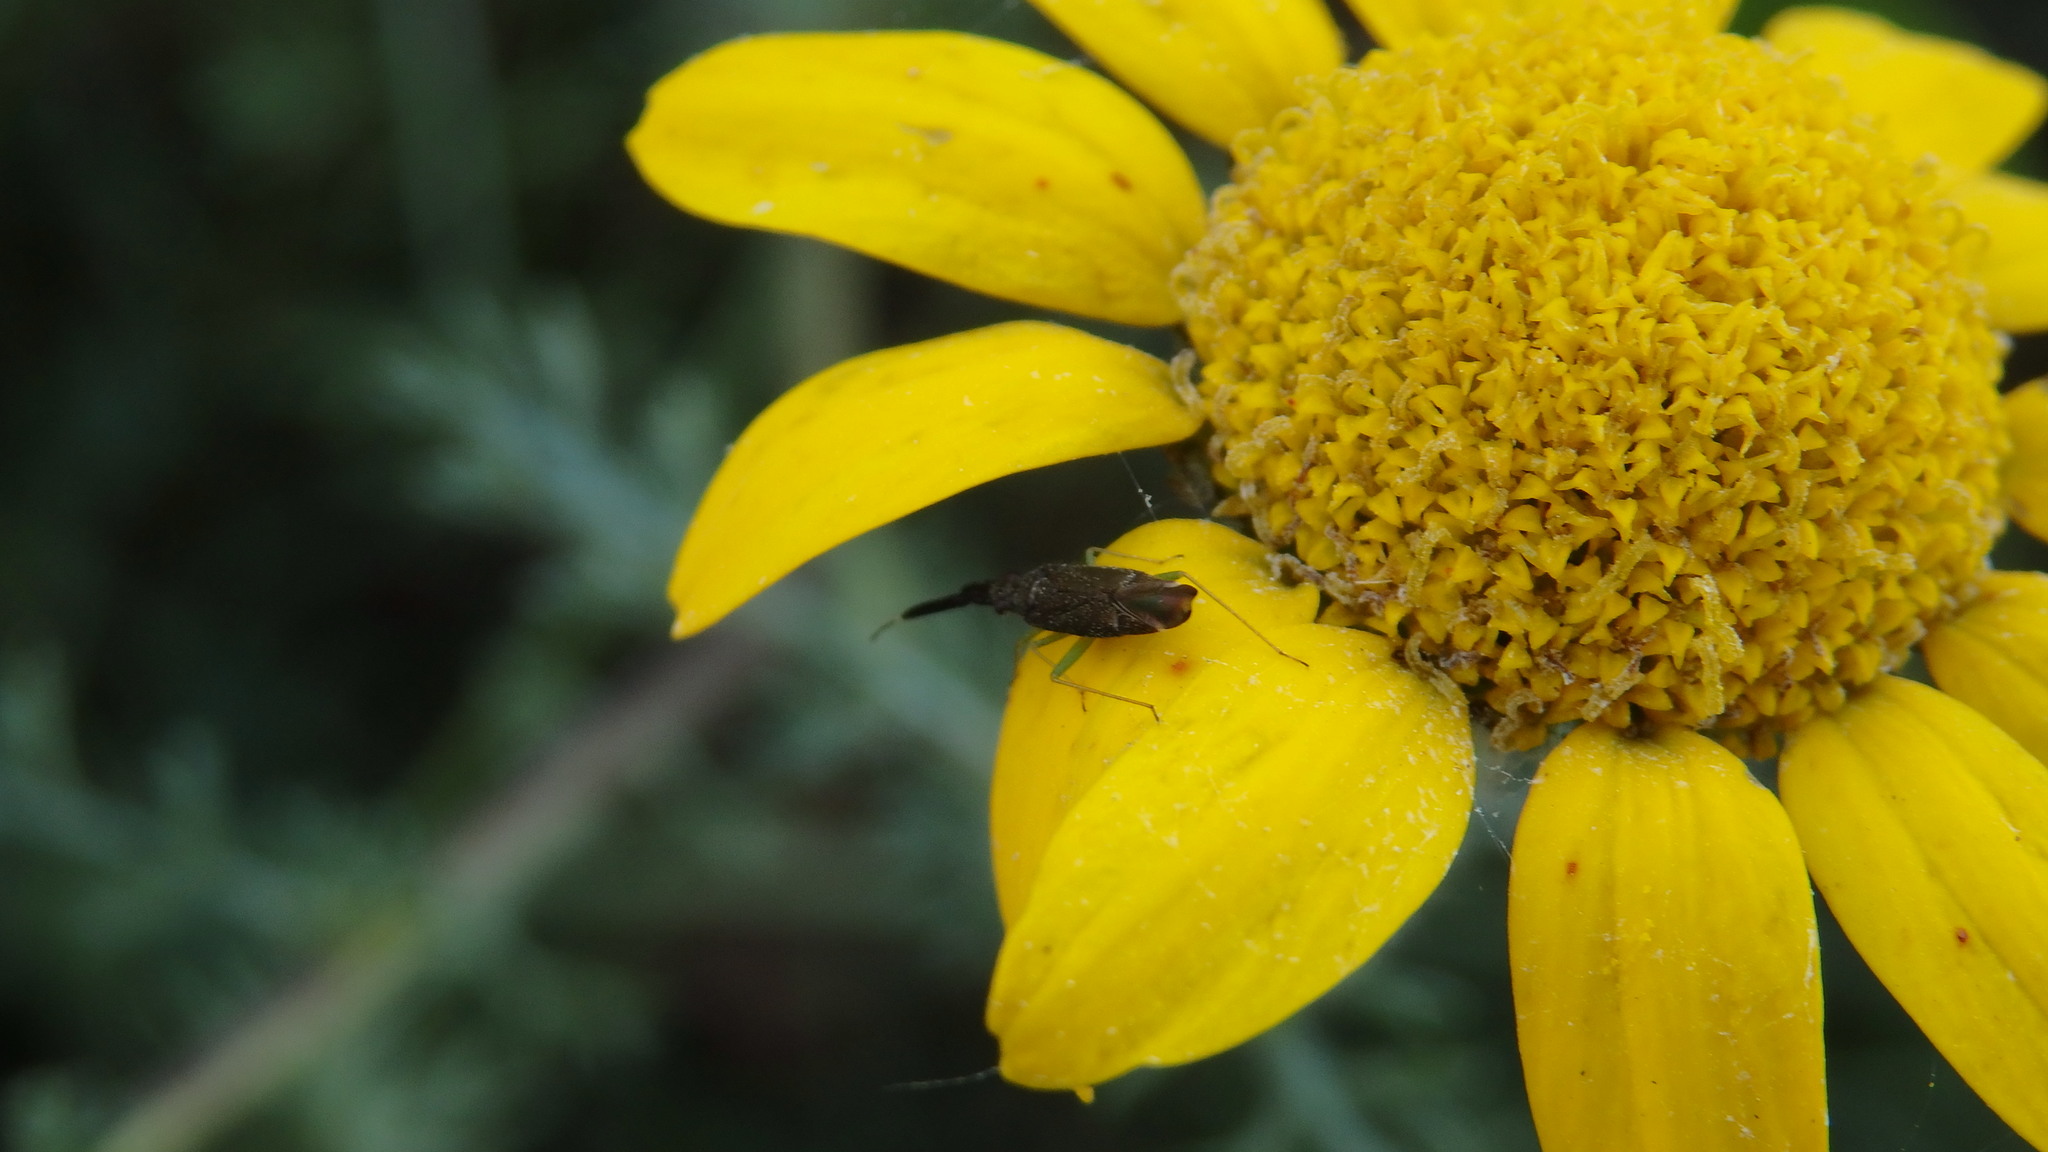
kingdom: Animalia
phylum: Arthropoda
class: Insecta
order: Hemiptera
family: Miridae
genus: Heterotoma
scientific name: Heterotoma planicornis
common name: Plant bug
